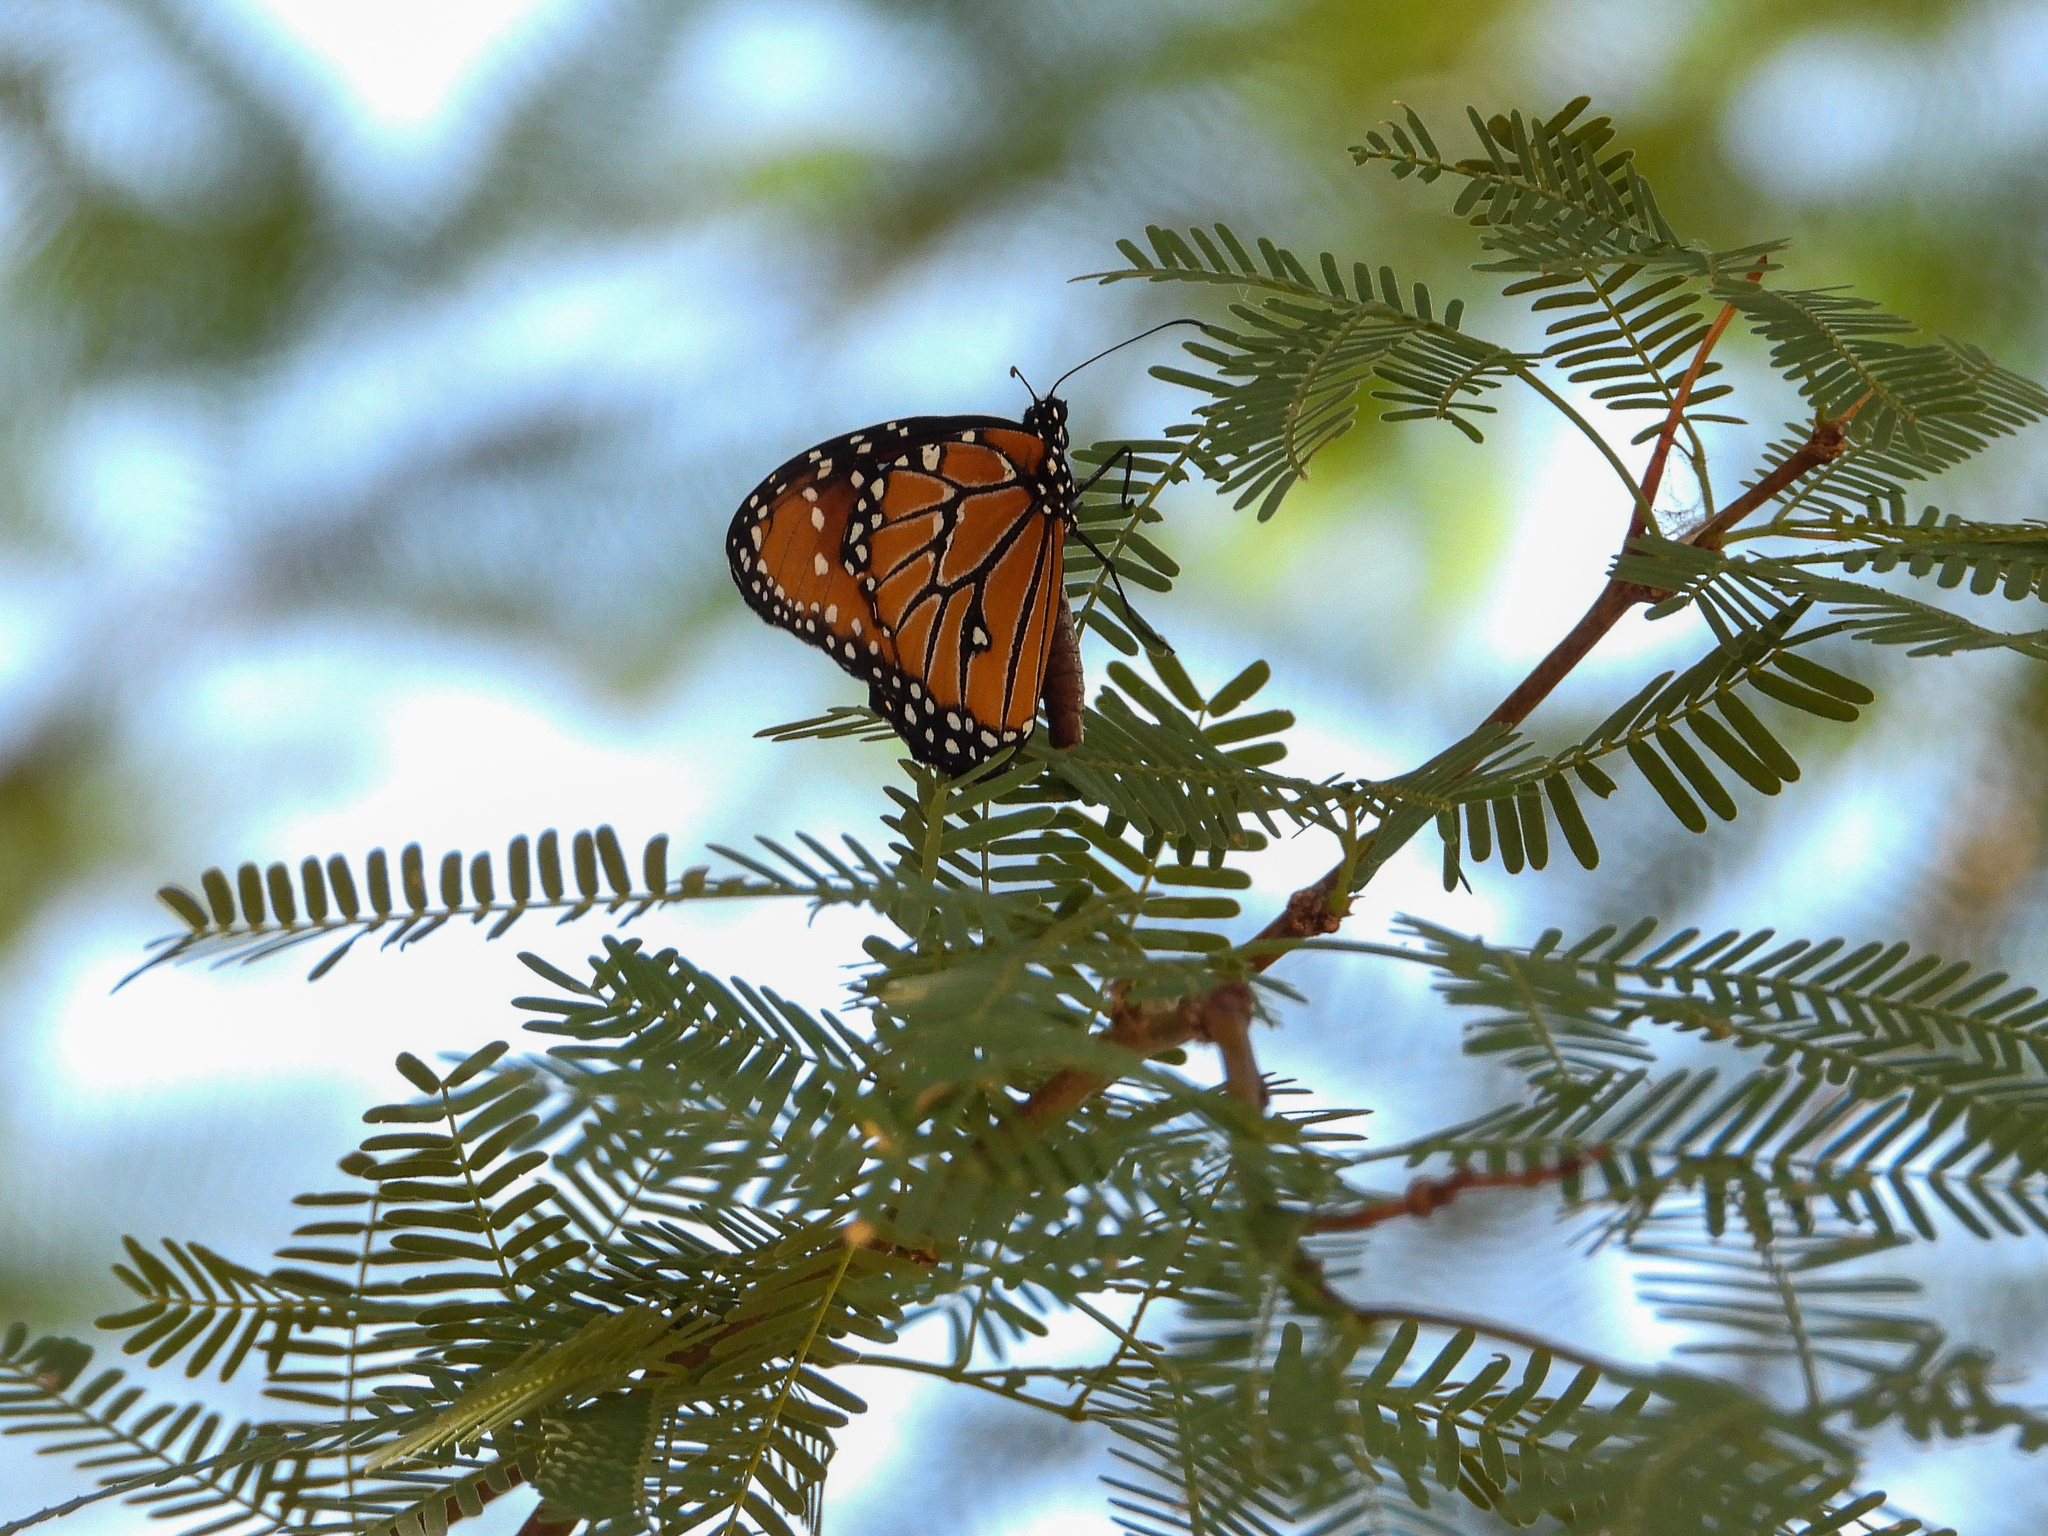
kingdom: Animalia
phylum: Arthropoda
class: Insecta
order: Lepidoptera
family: Nymphalidae
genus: Danaus
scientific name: Danaus gilippus
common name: Queen
